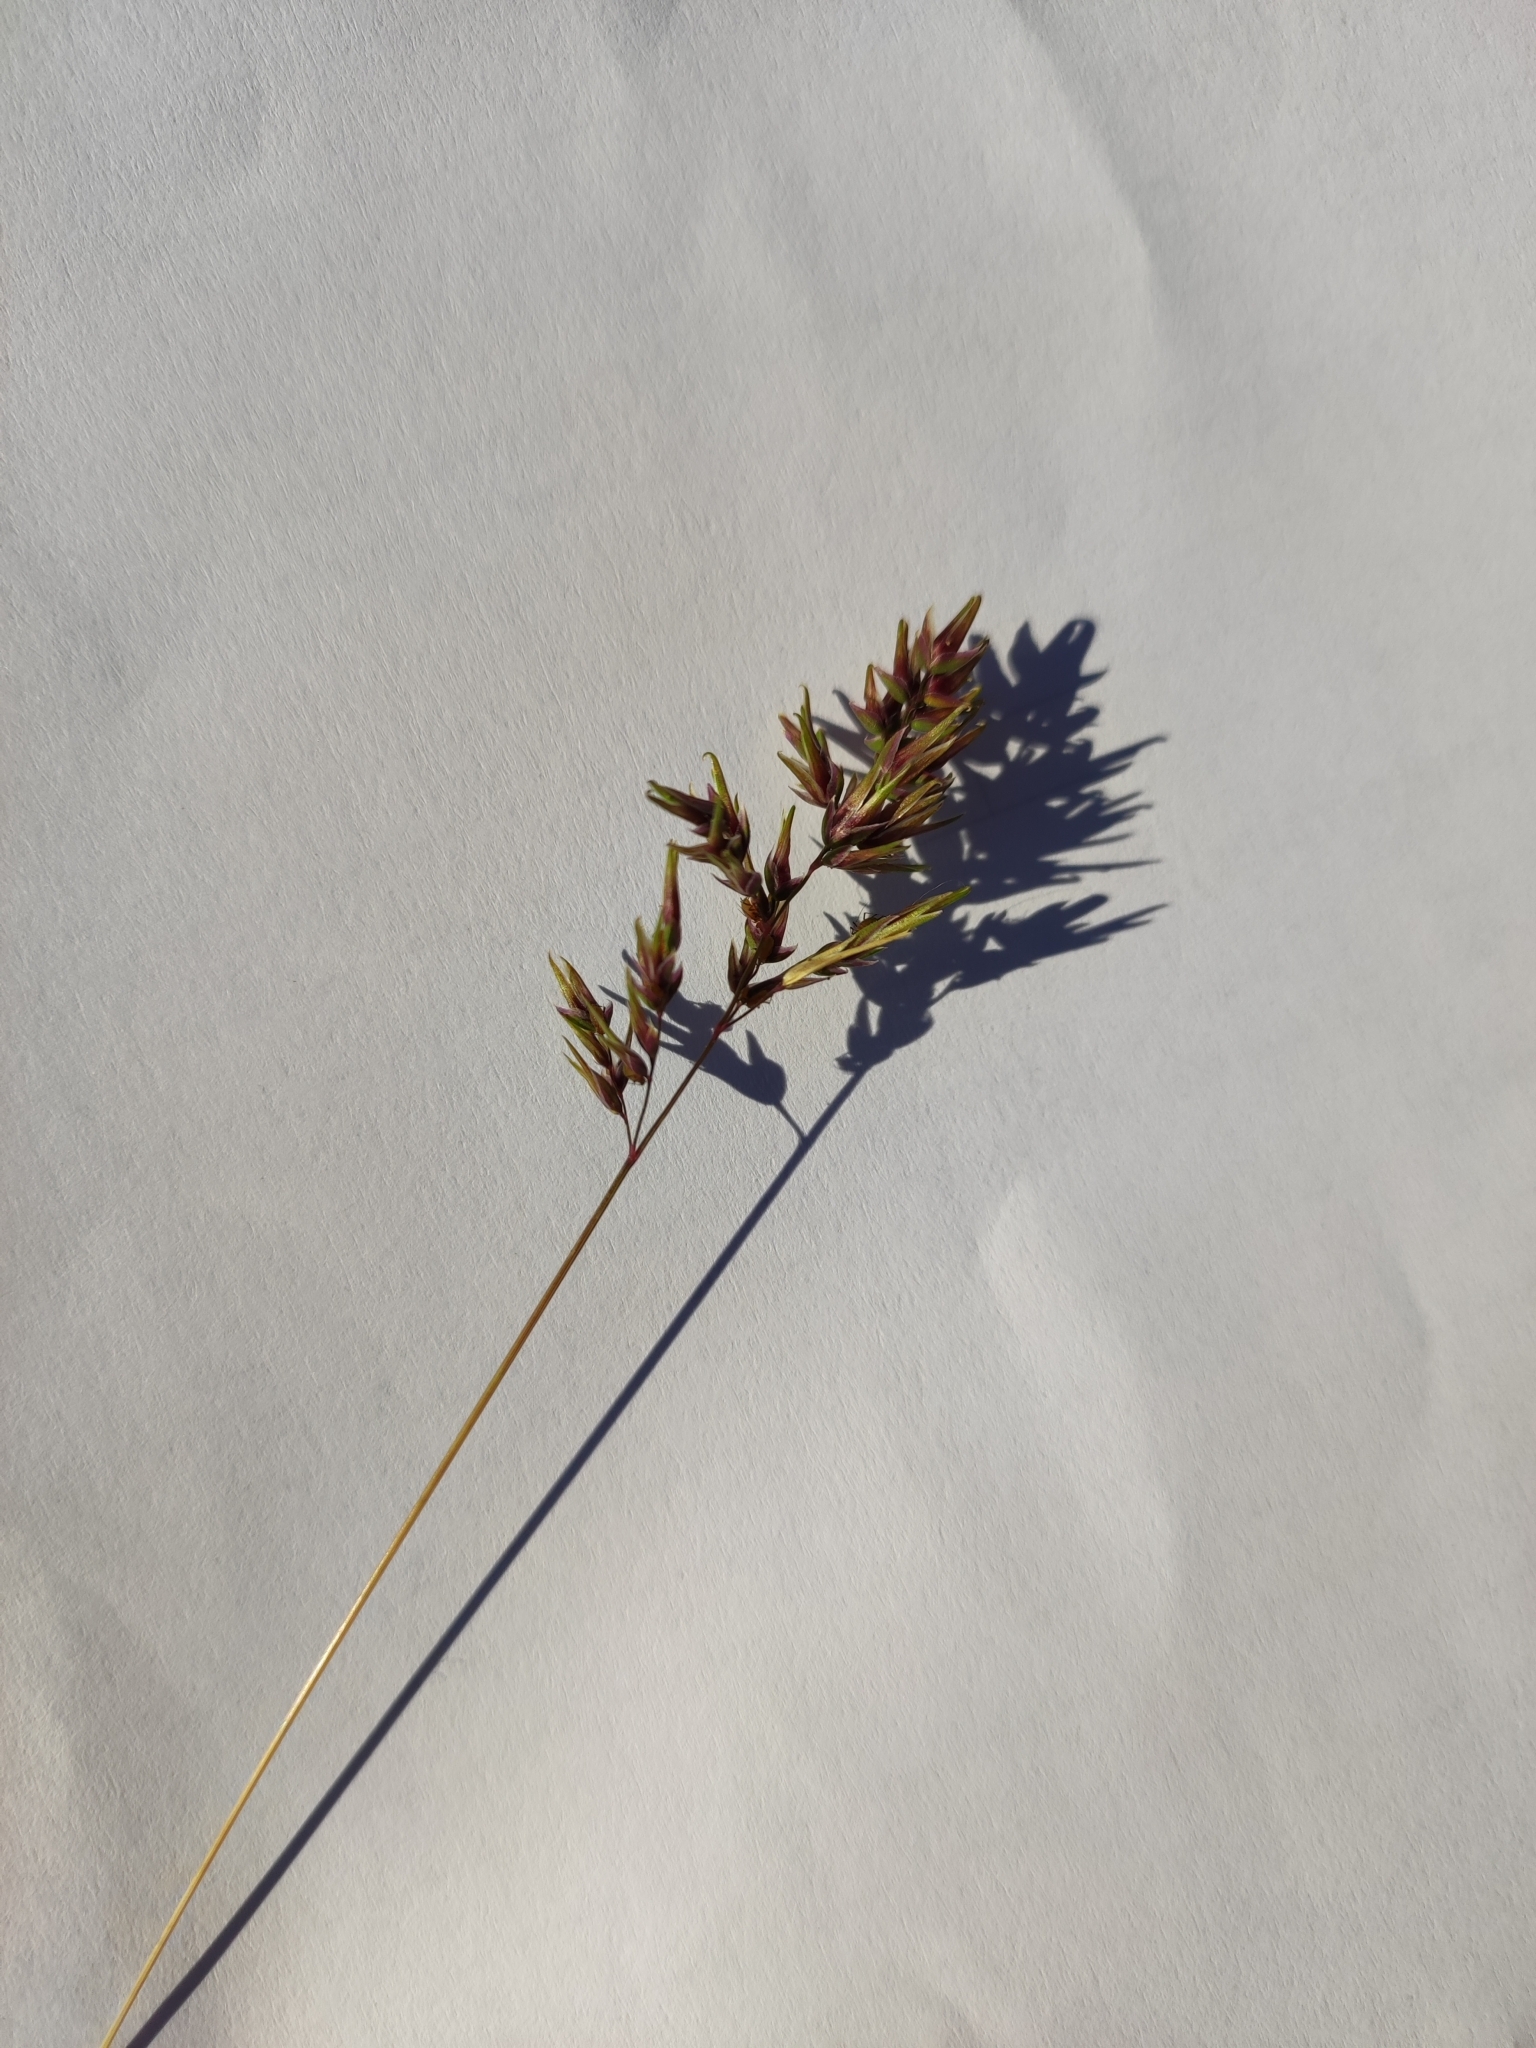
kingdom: Plantae
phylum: Tracheophyta
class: Liliopsida
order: Poales
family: Poaceae
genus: Poa
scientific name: Poa bulbosa
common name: Bulbous bluegrass
